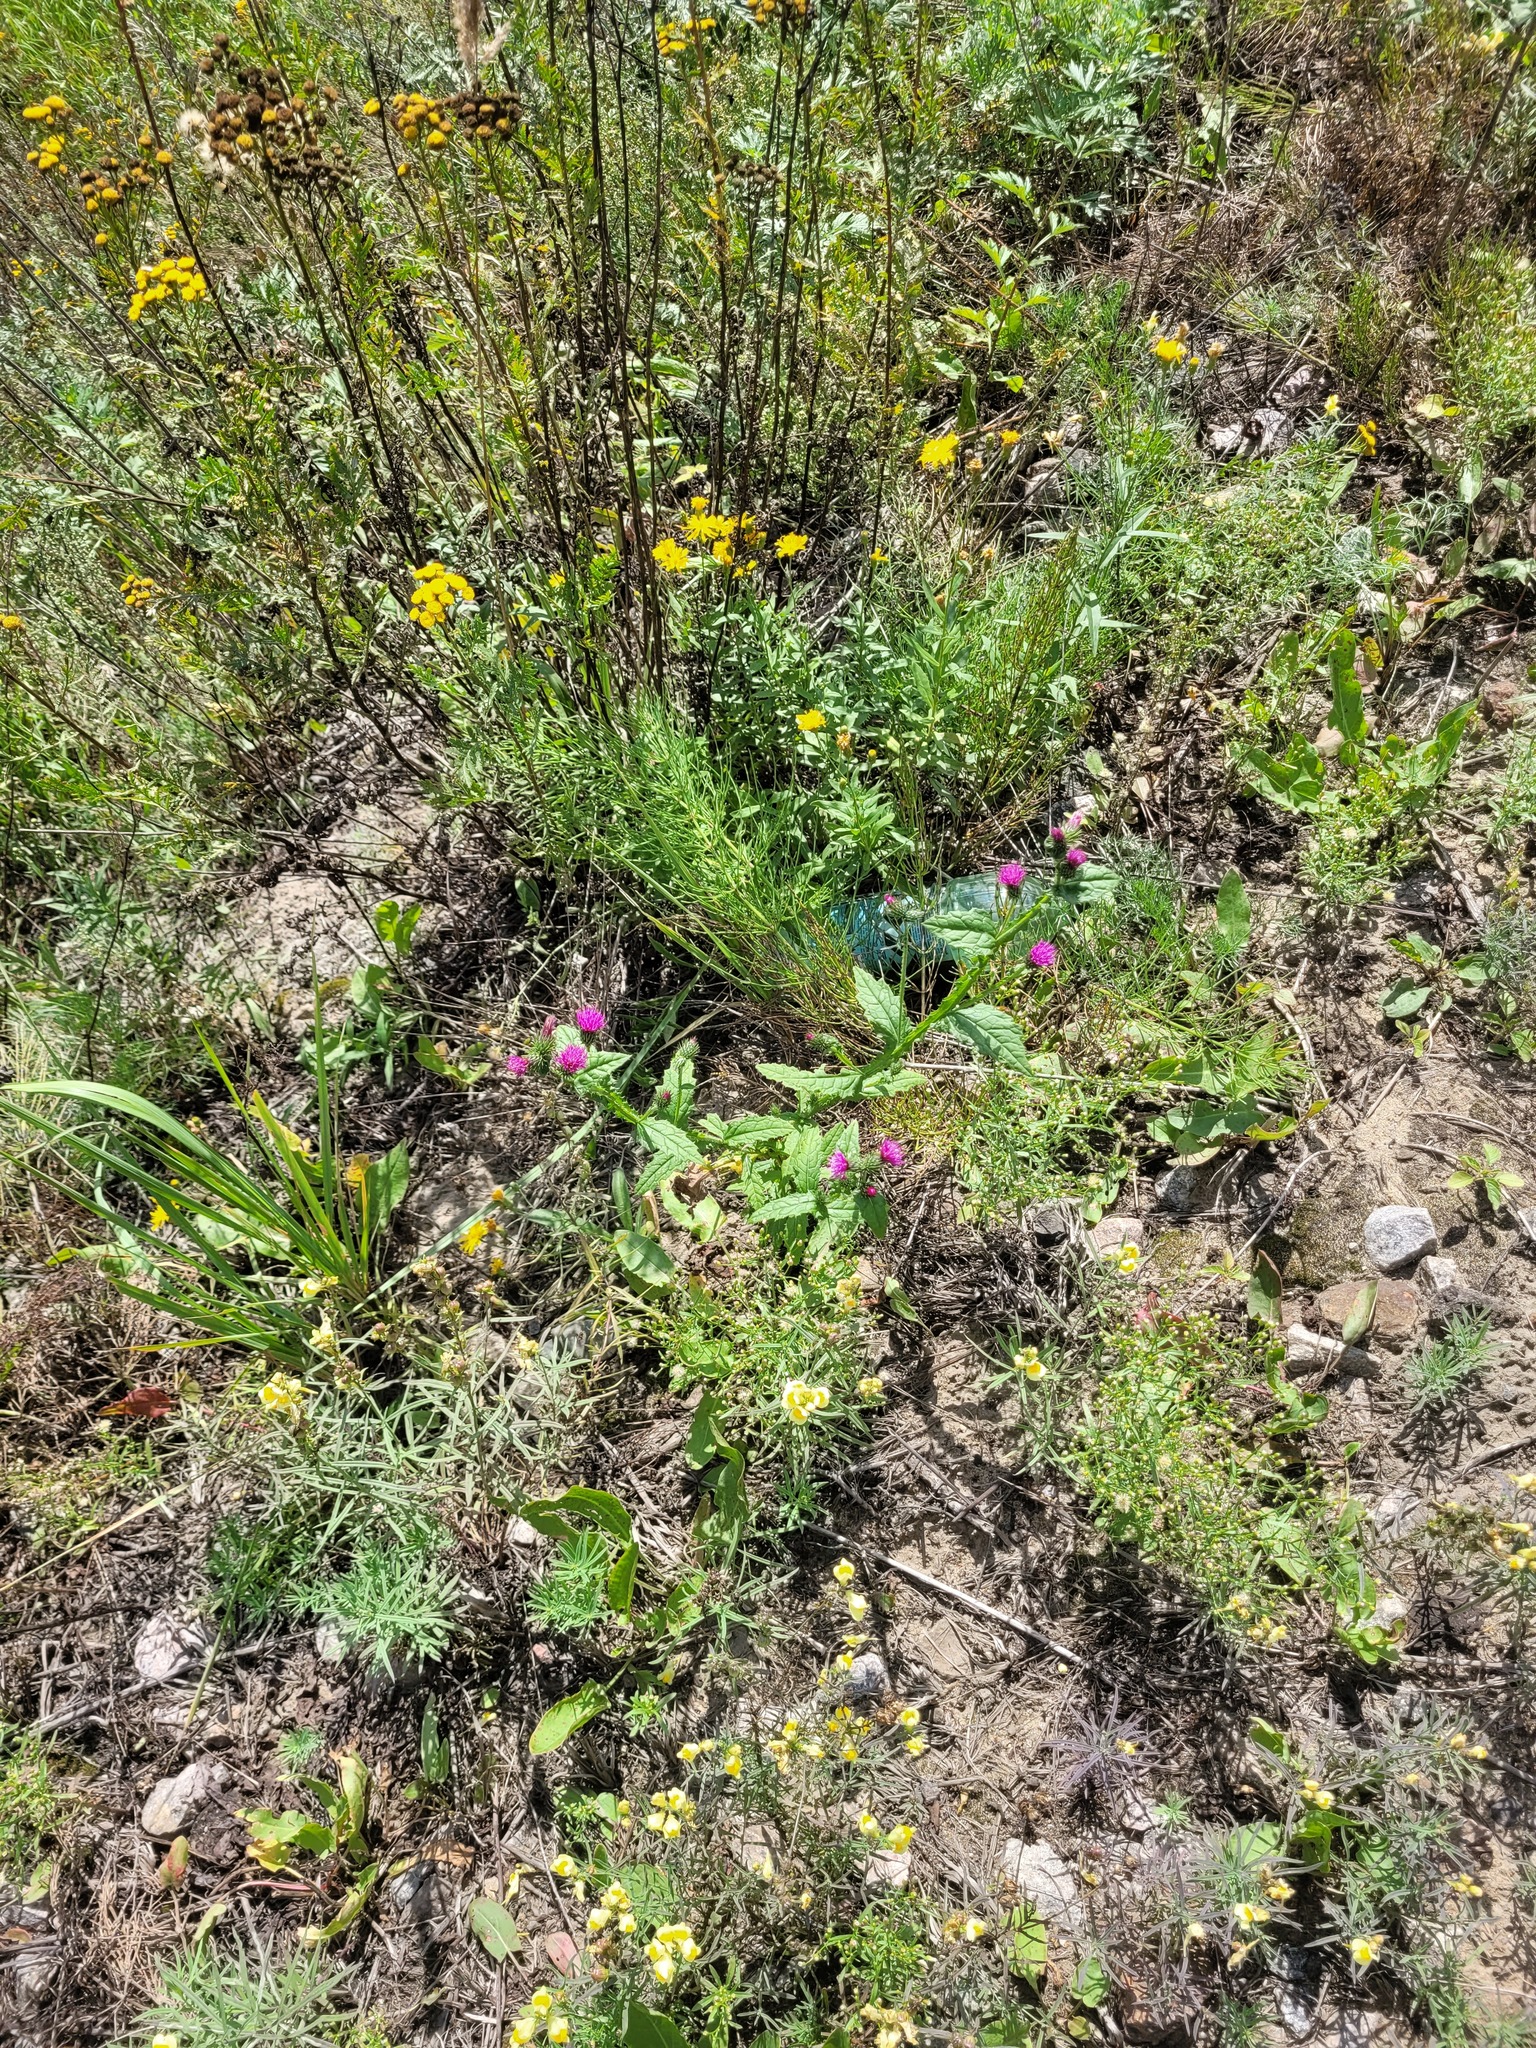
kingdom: Plantae
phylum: Tracheophyta
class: Magnoliopsida
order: Asterales
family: Asteraceae
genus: Carduus
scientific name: Carduus crispus
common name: Welted thistle
